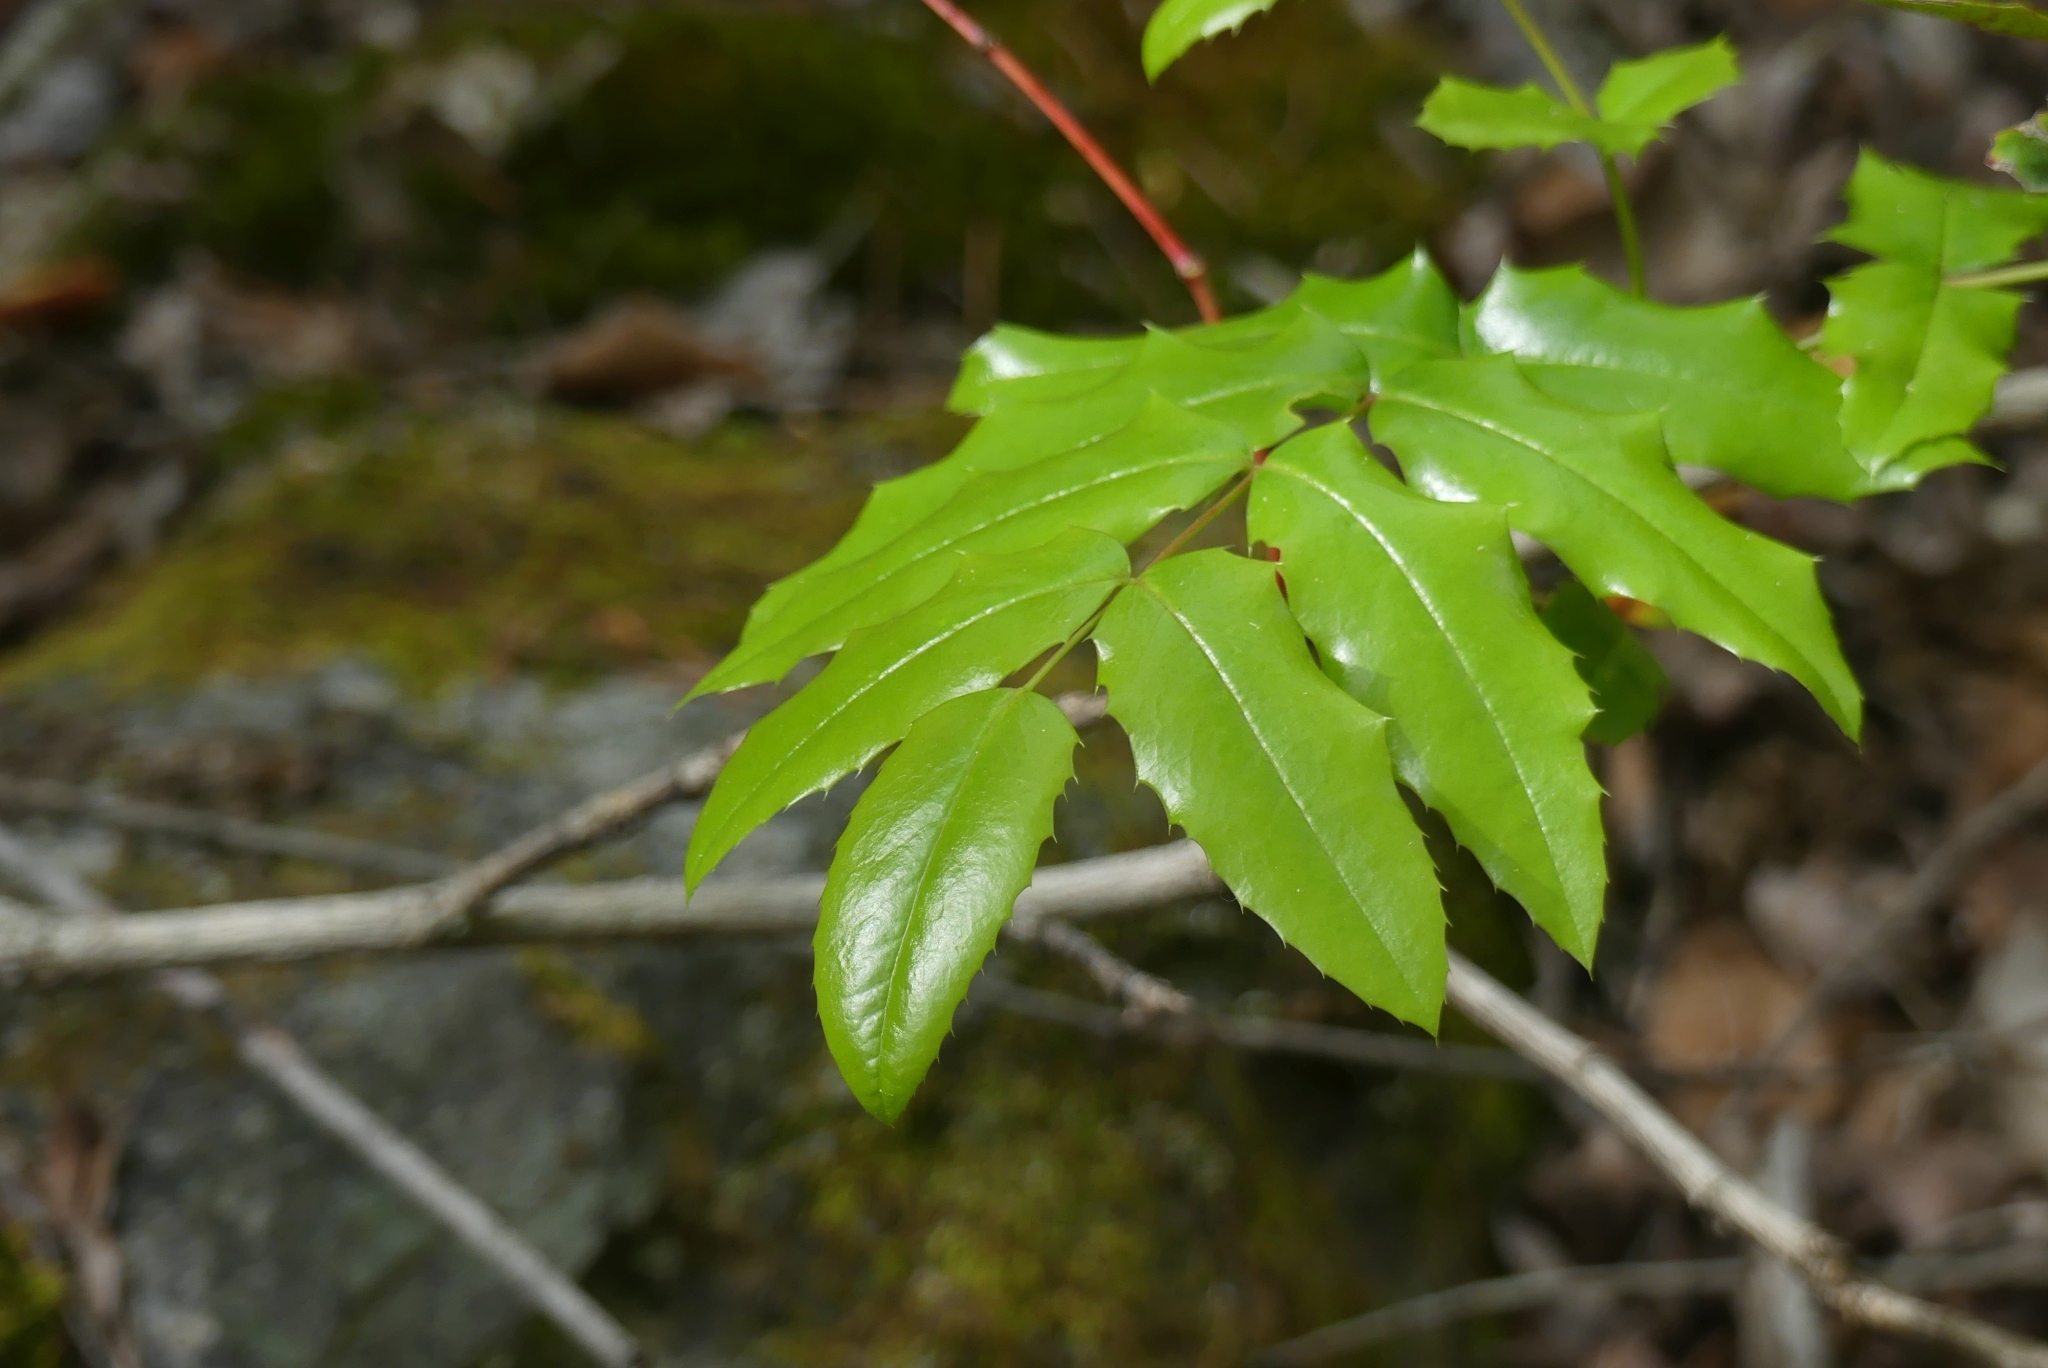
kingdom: Plantae
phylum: Tracheophyta
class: Magnoliopsida
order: Ranunculales
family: Berberidaceae
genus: Mahonia
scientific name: Mahonia aquifolium
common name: Oregon-grape
